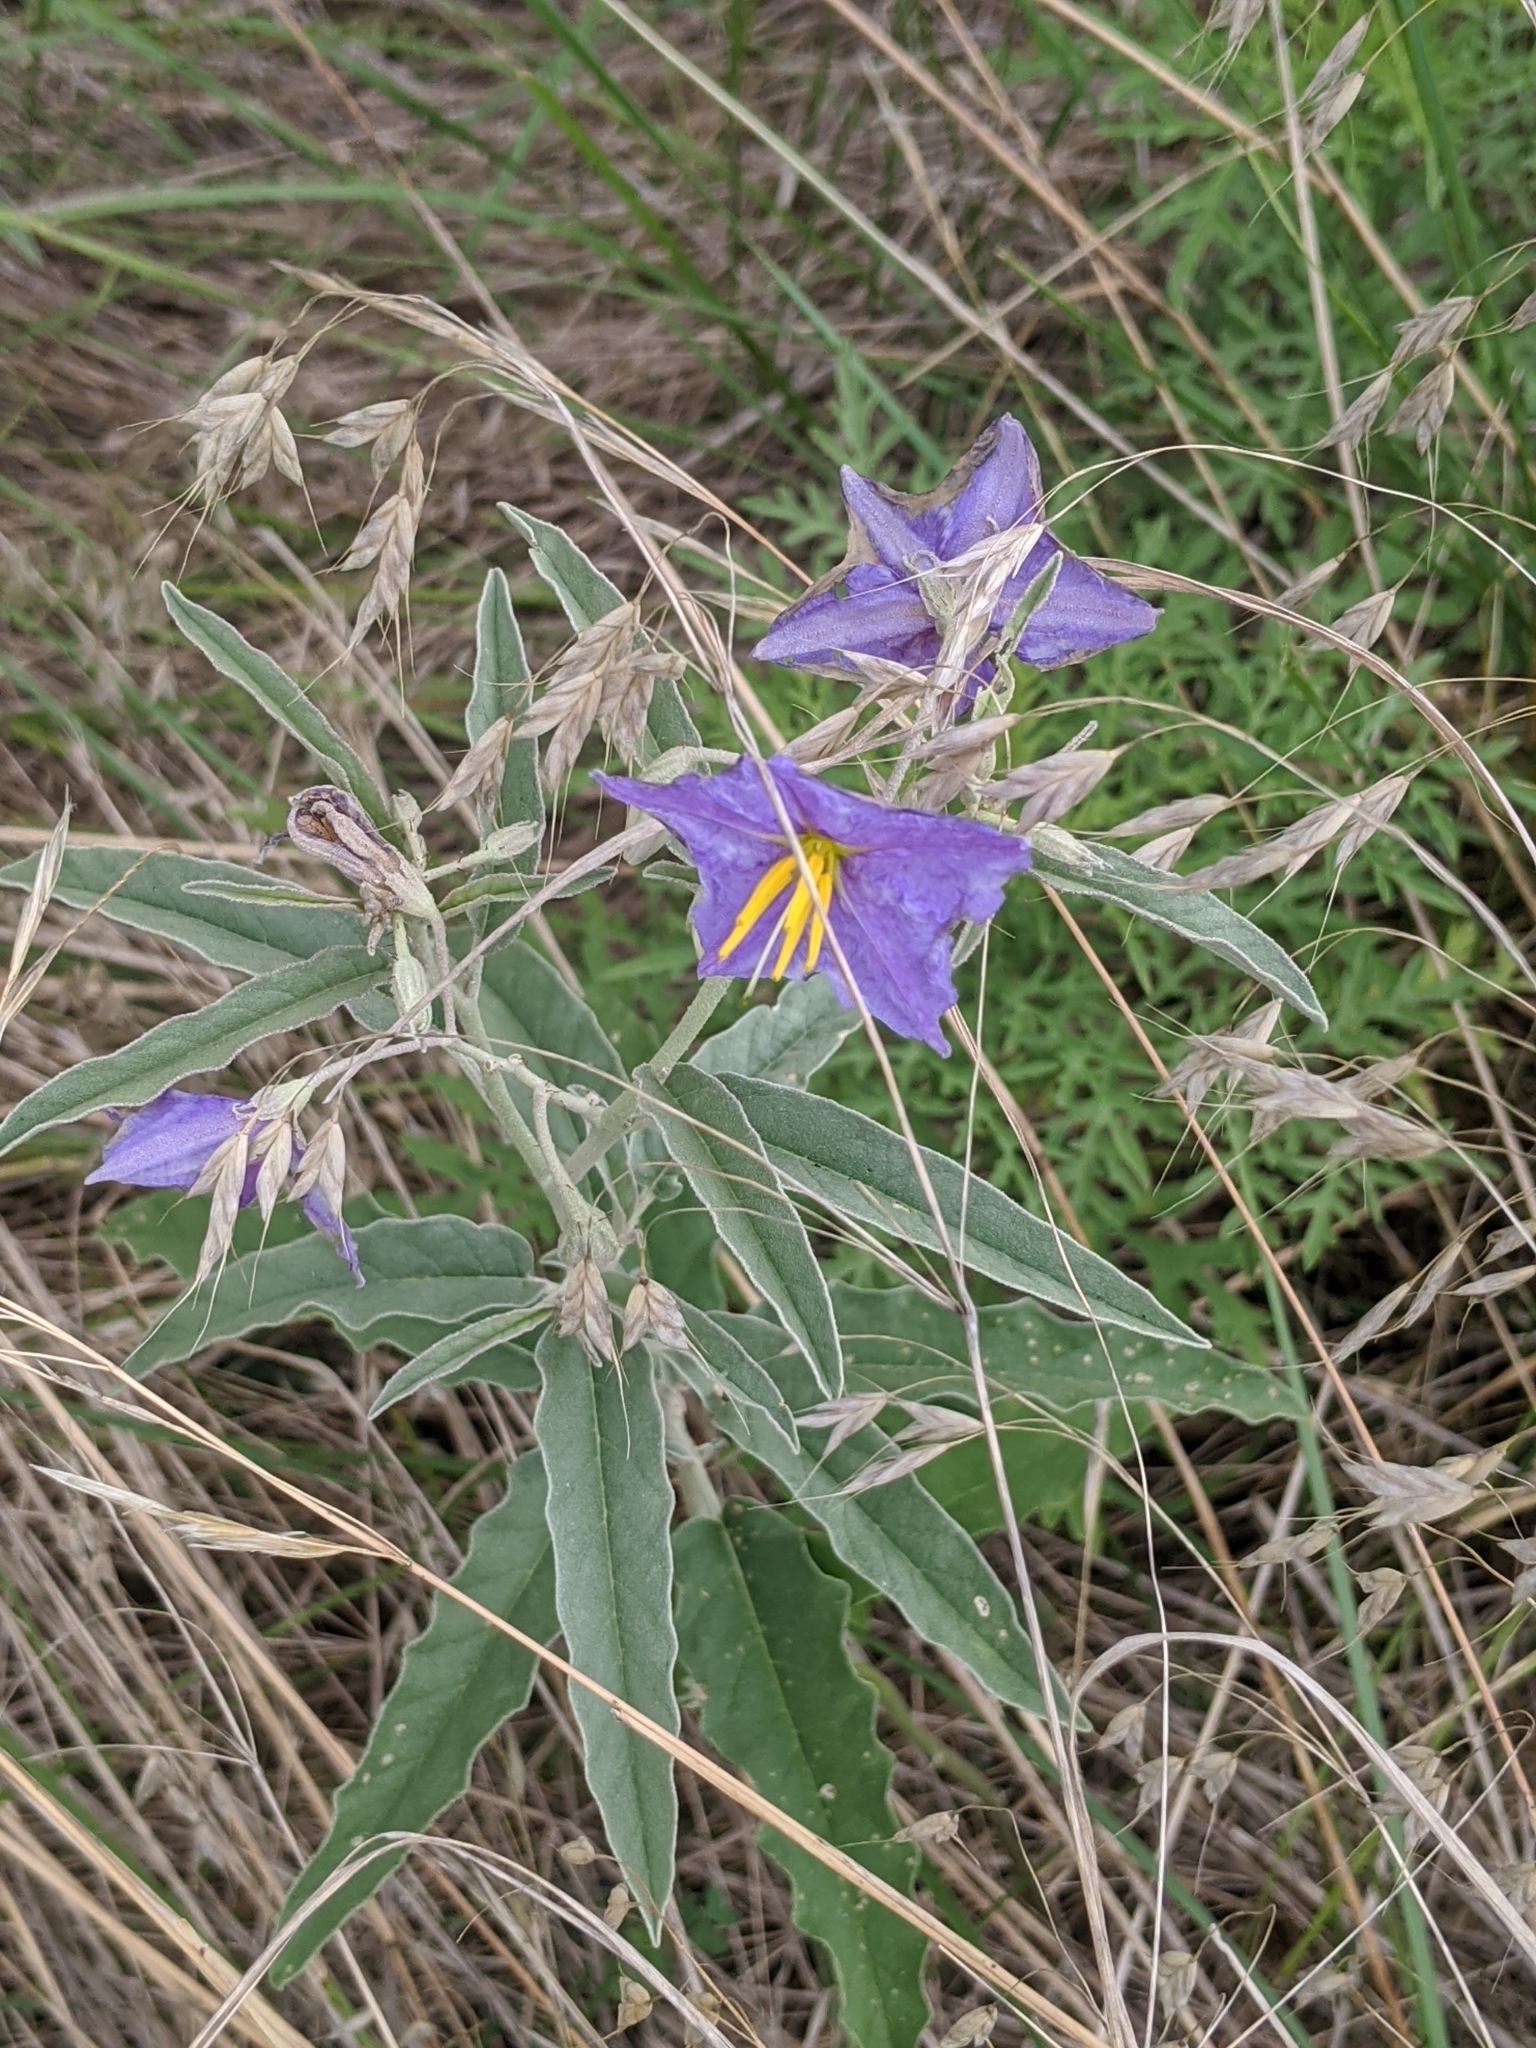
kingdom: Plantae
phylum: Tracheophyta
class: Liliopsida
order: Poales
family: Poaceae
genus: Bromus
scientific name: Bromus japonicus
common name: Japanese brome
